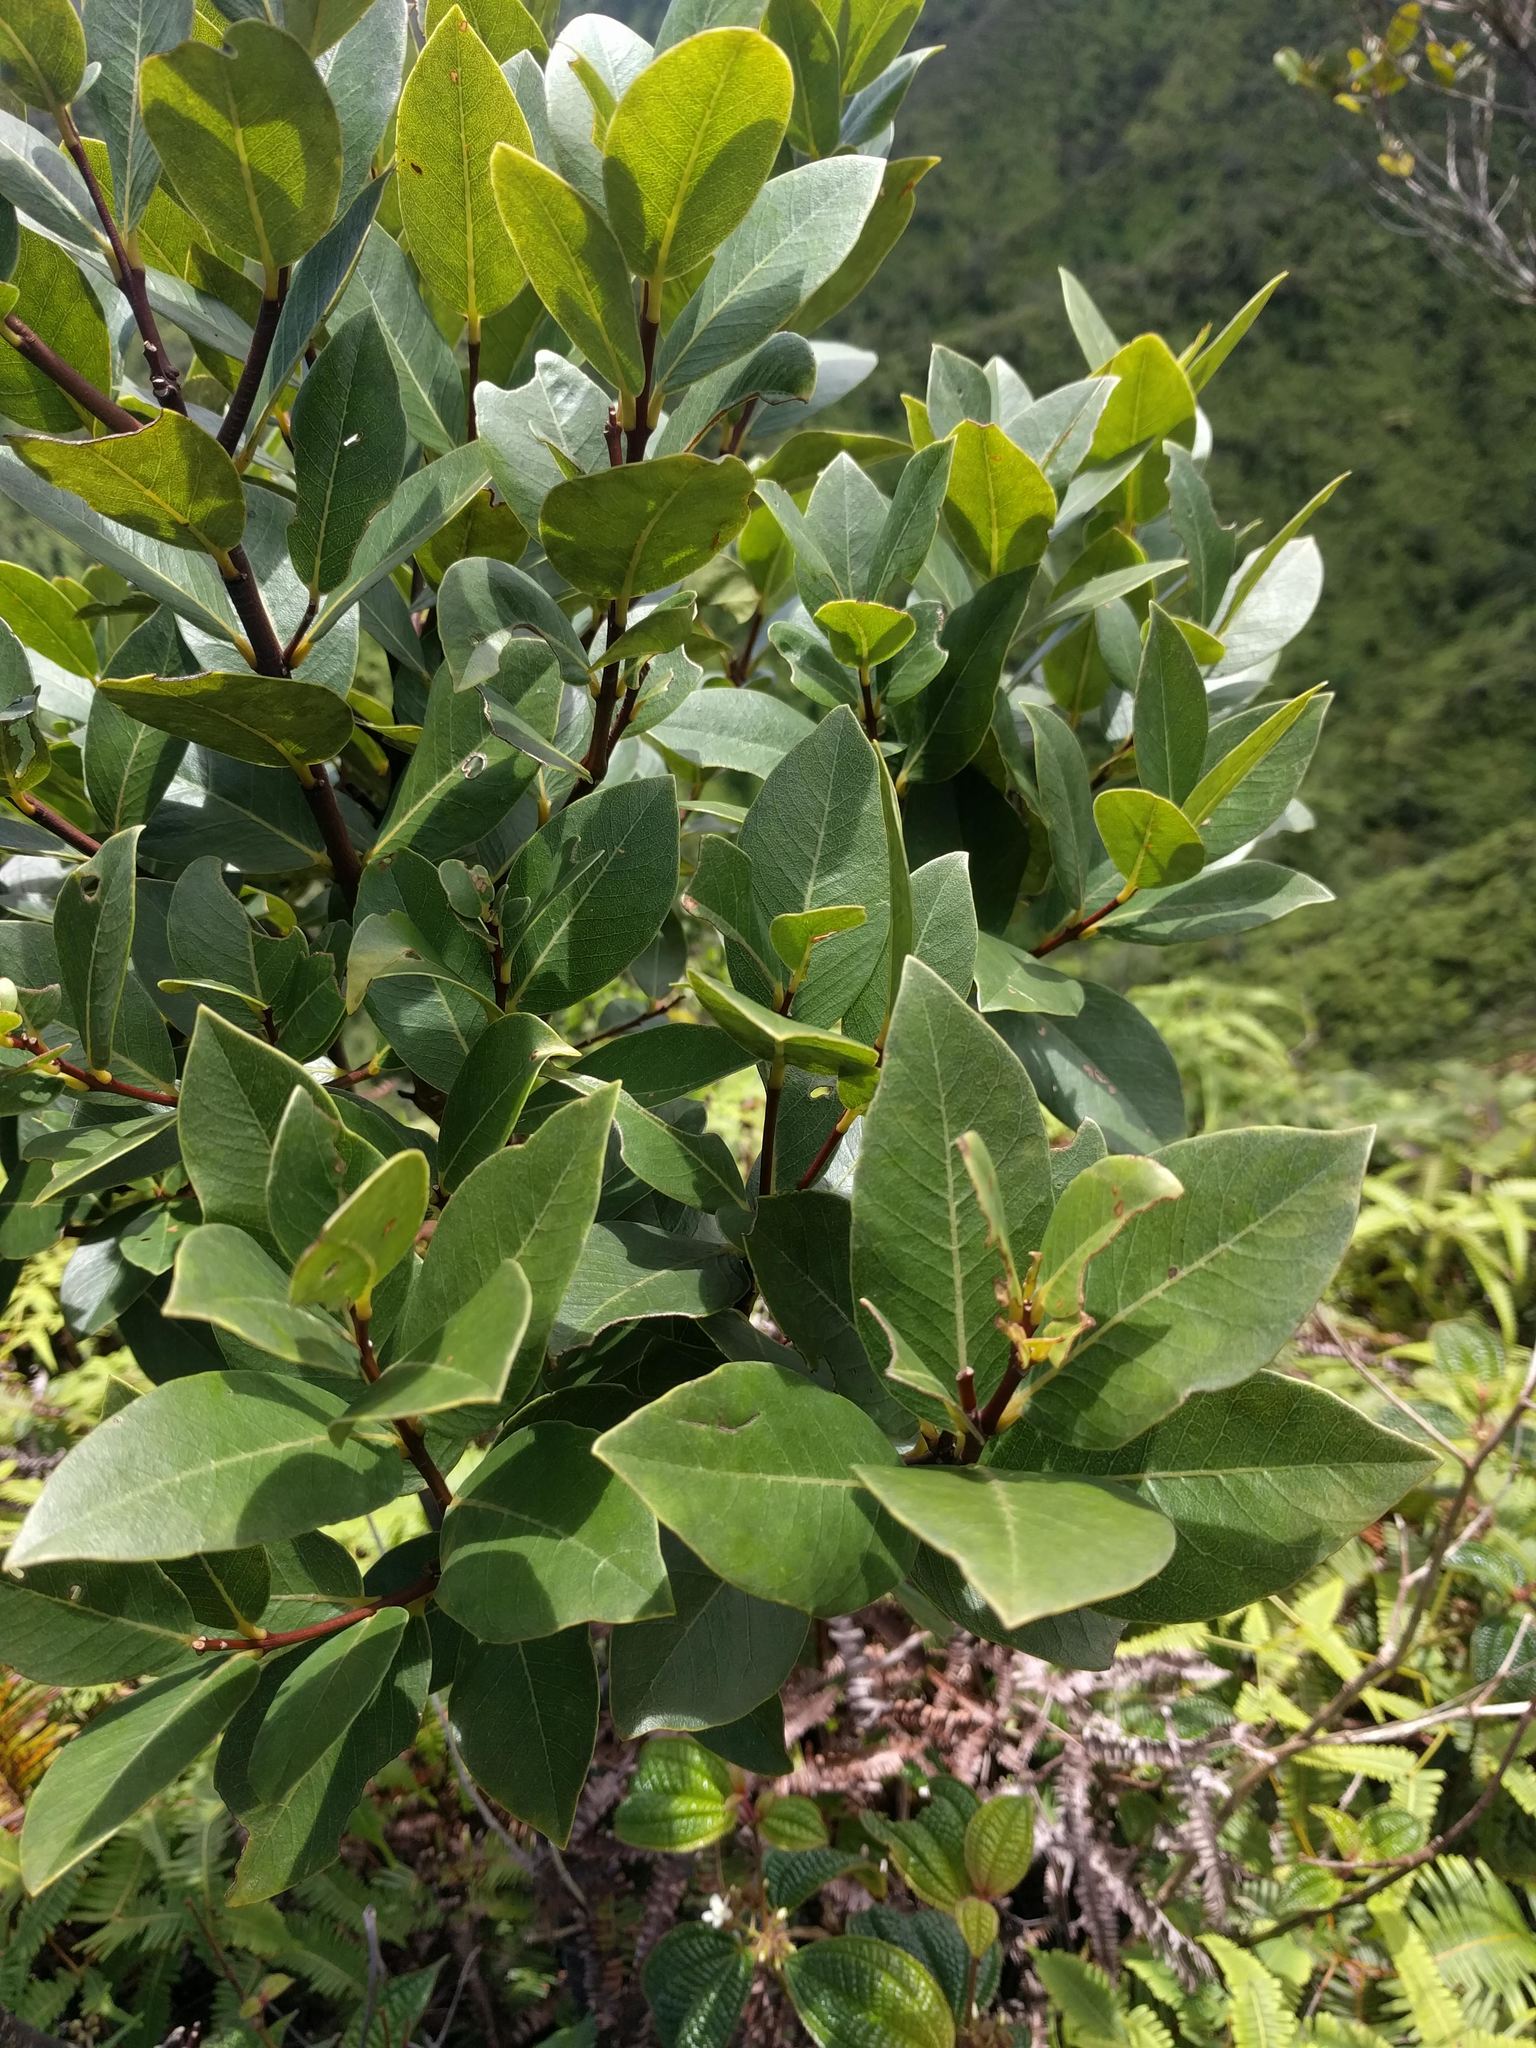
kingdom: Plantae
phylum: Tracheophyta
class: Magnoliopsida
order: Malvales
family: Thymelaeaceae
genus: Wikstroemia
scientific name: Wikstroemia oahuensis
